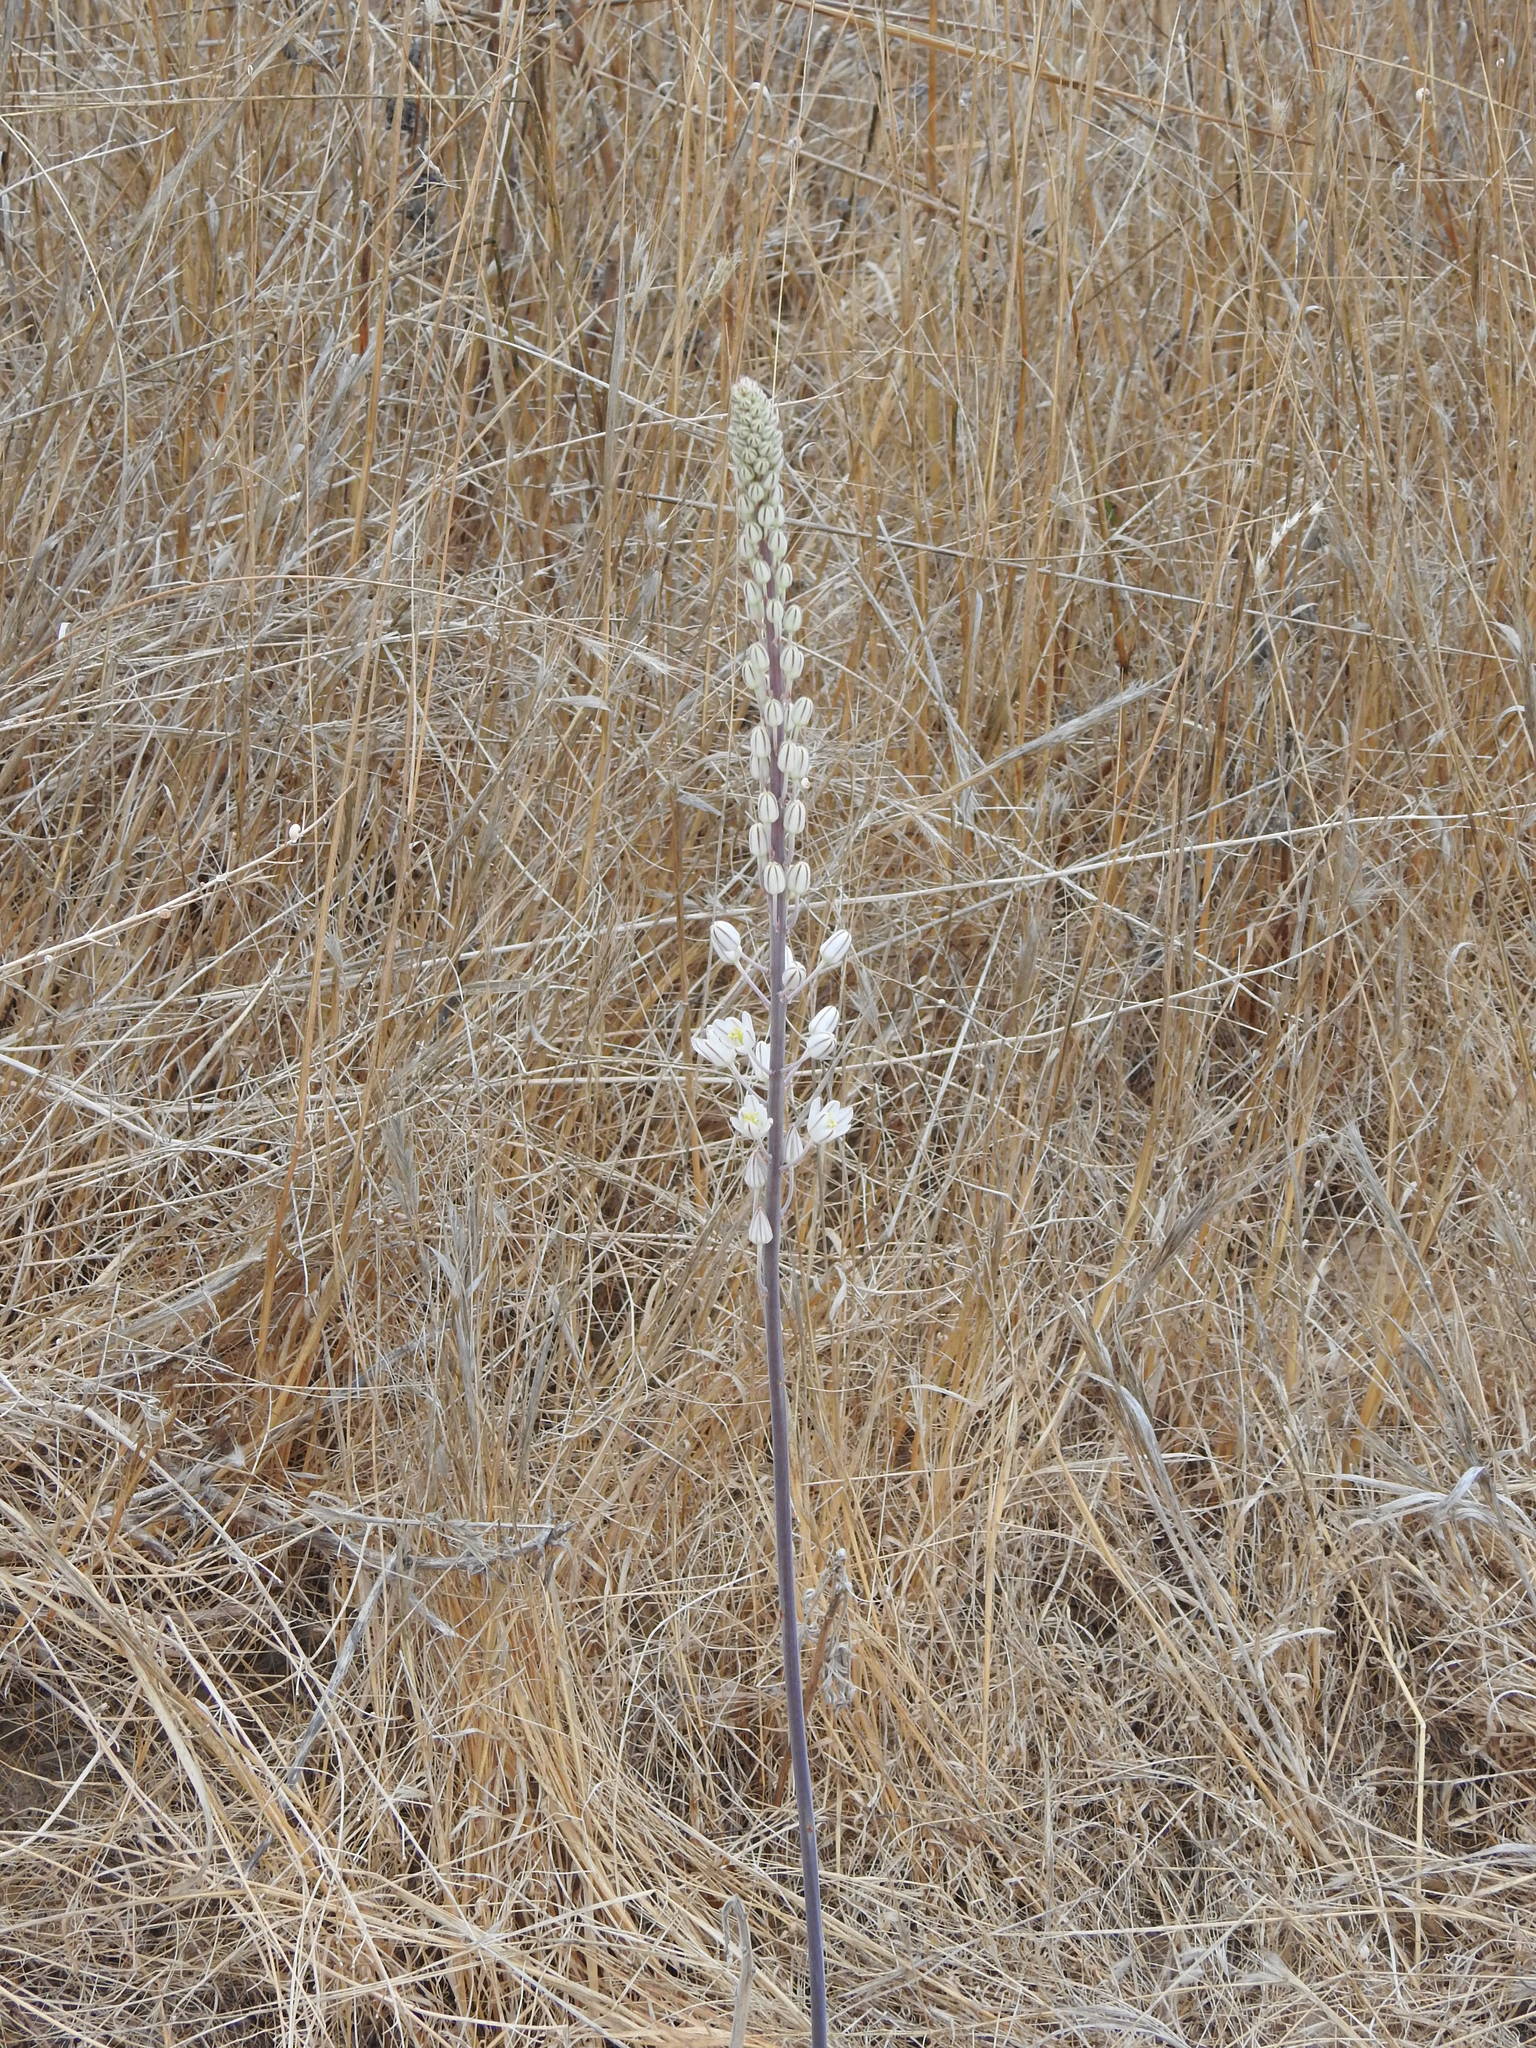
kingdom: Plantae
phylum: Tracheophyta
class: Liliopsida
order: Asparagales
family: Asparagaceae
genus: Drimia
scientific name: Drimia maritima
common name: Maritime squill
